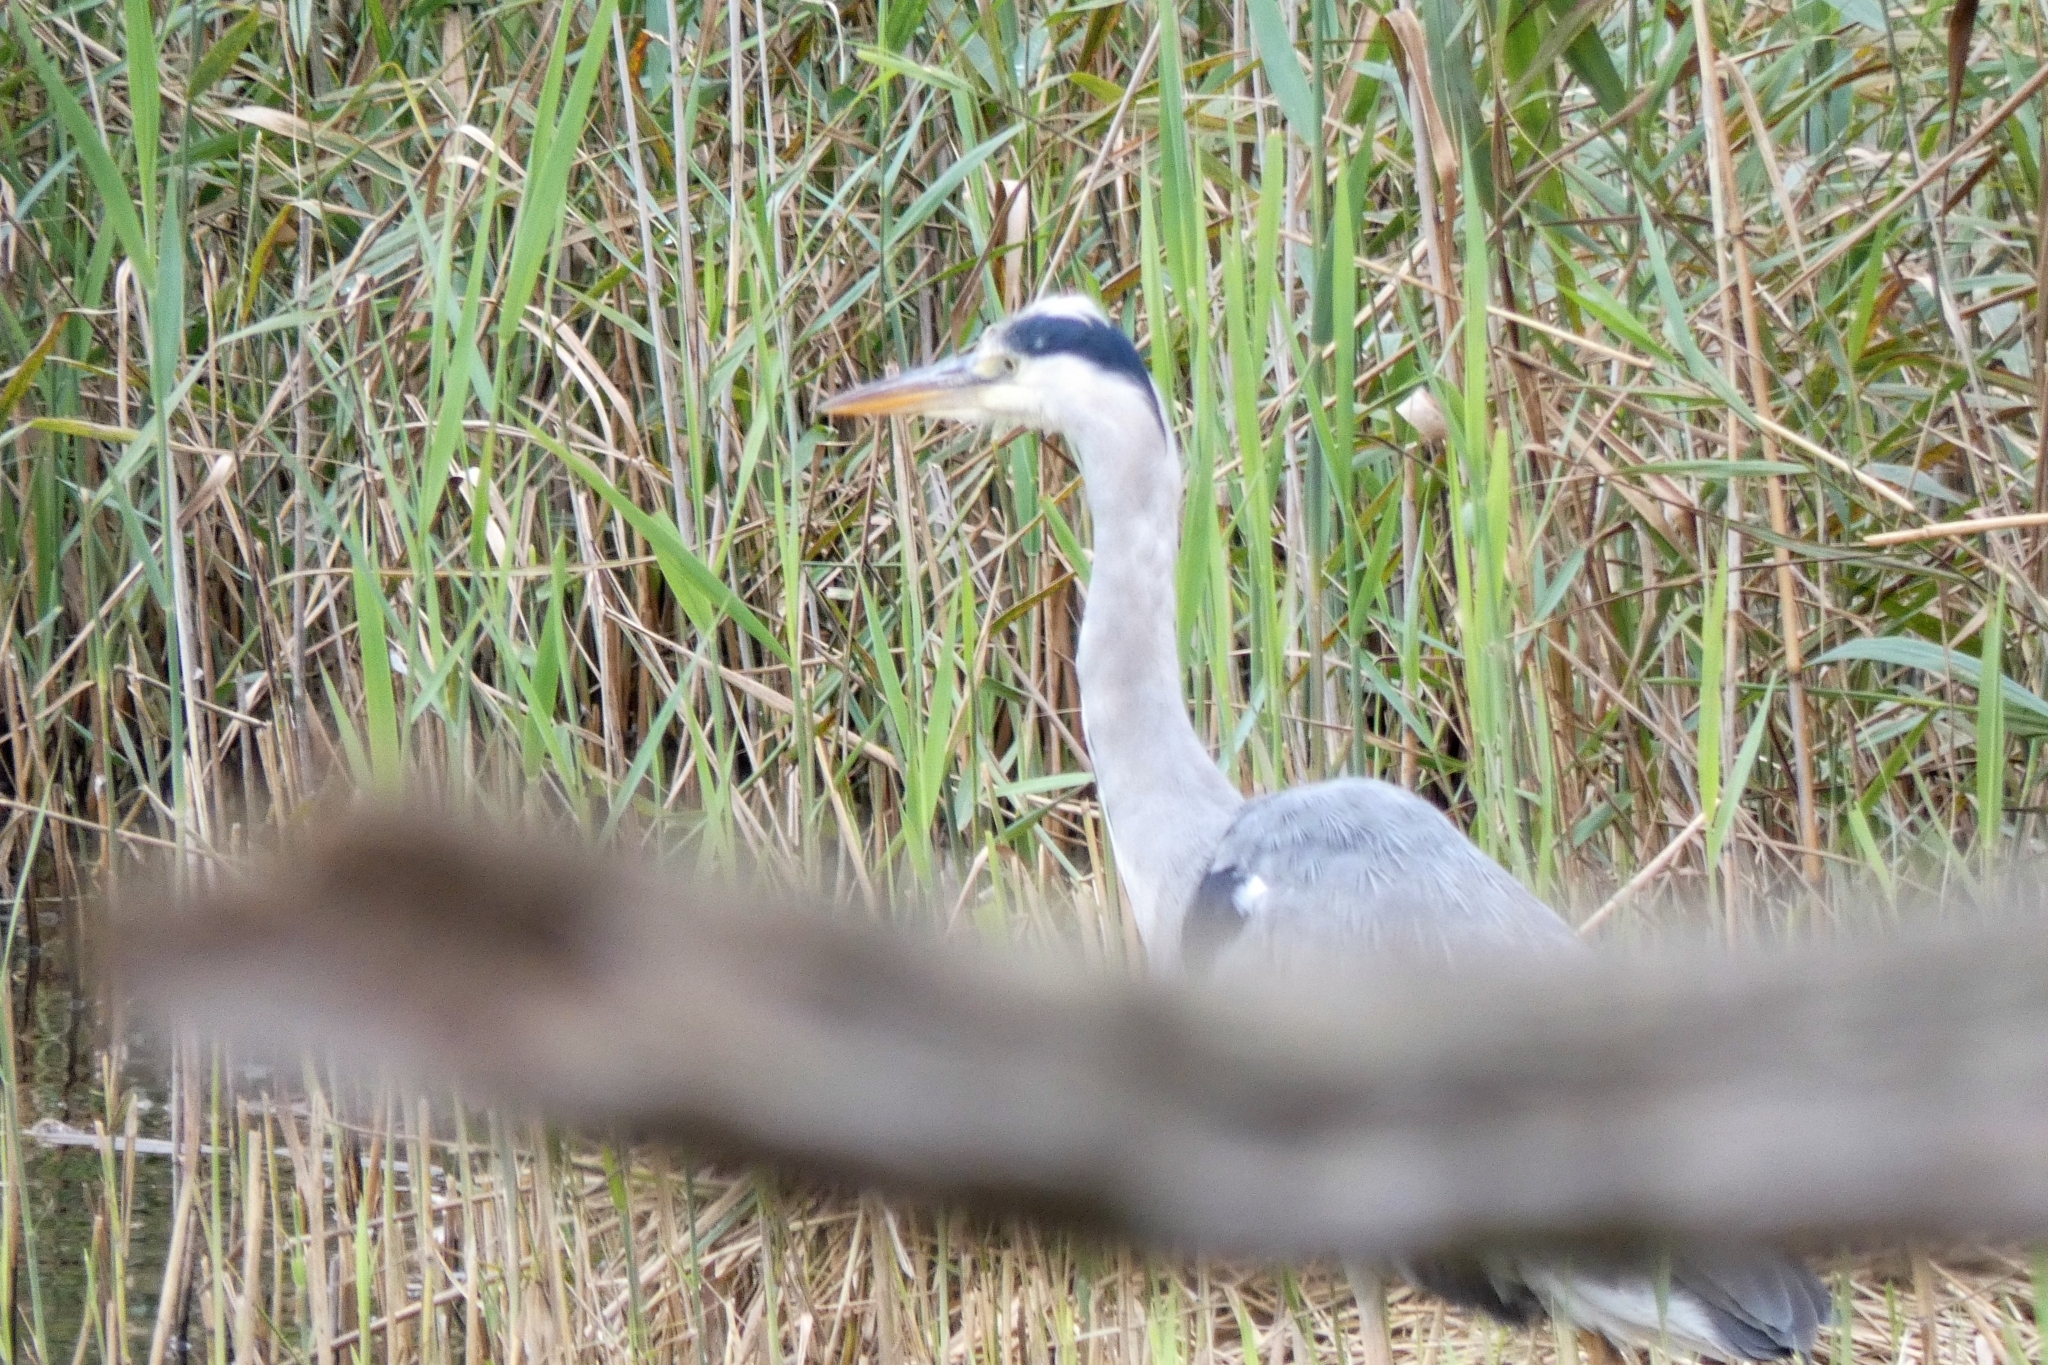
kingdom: Animalia
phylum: Chordata
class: Aves
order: Pelecaniformes
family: Ardeidae
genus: Ardea
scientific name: Ardea cinerea
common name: Grey heron
